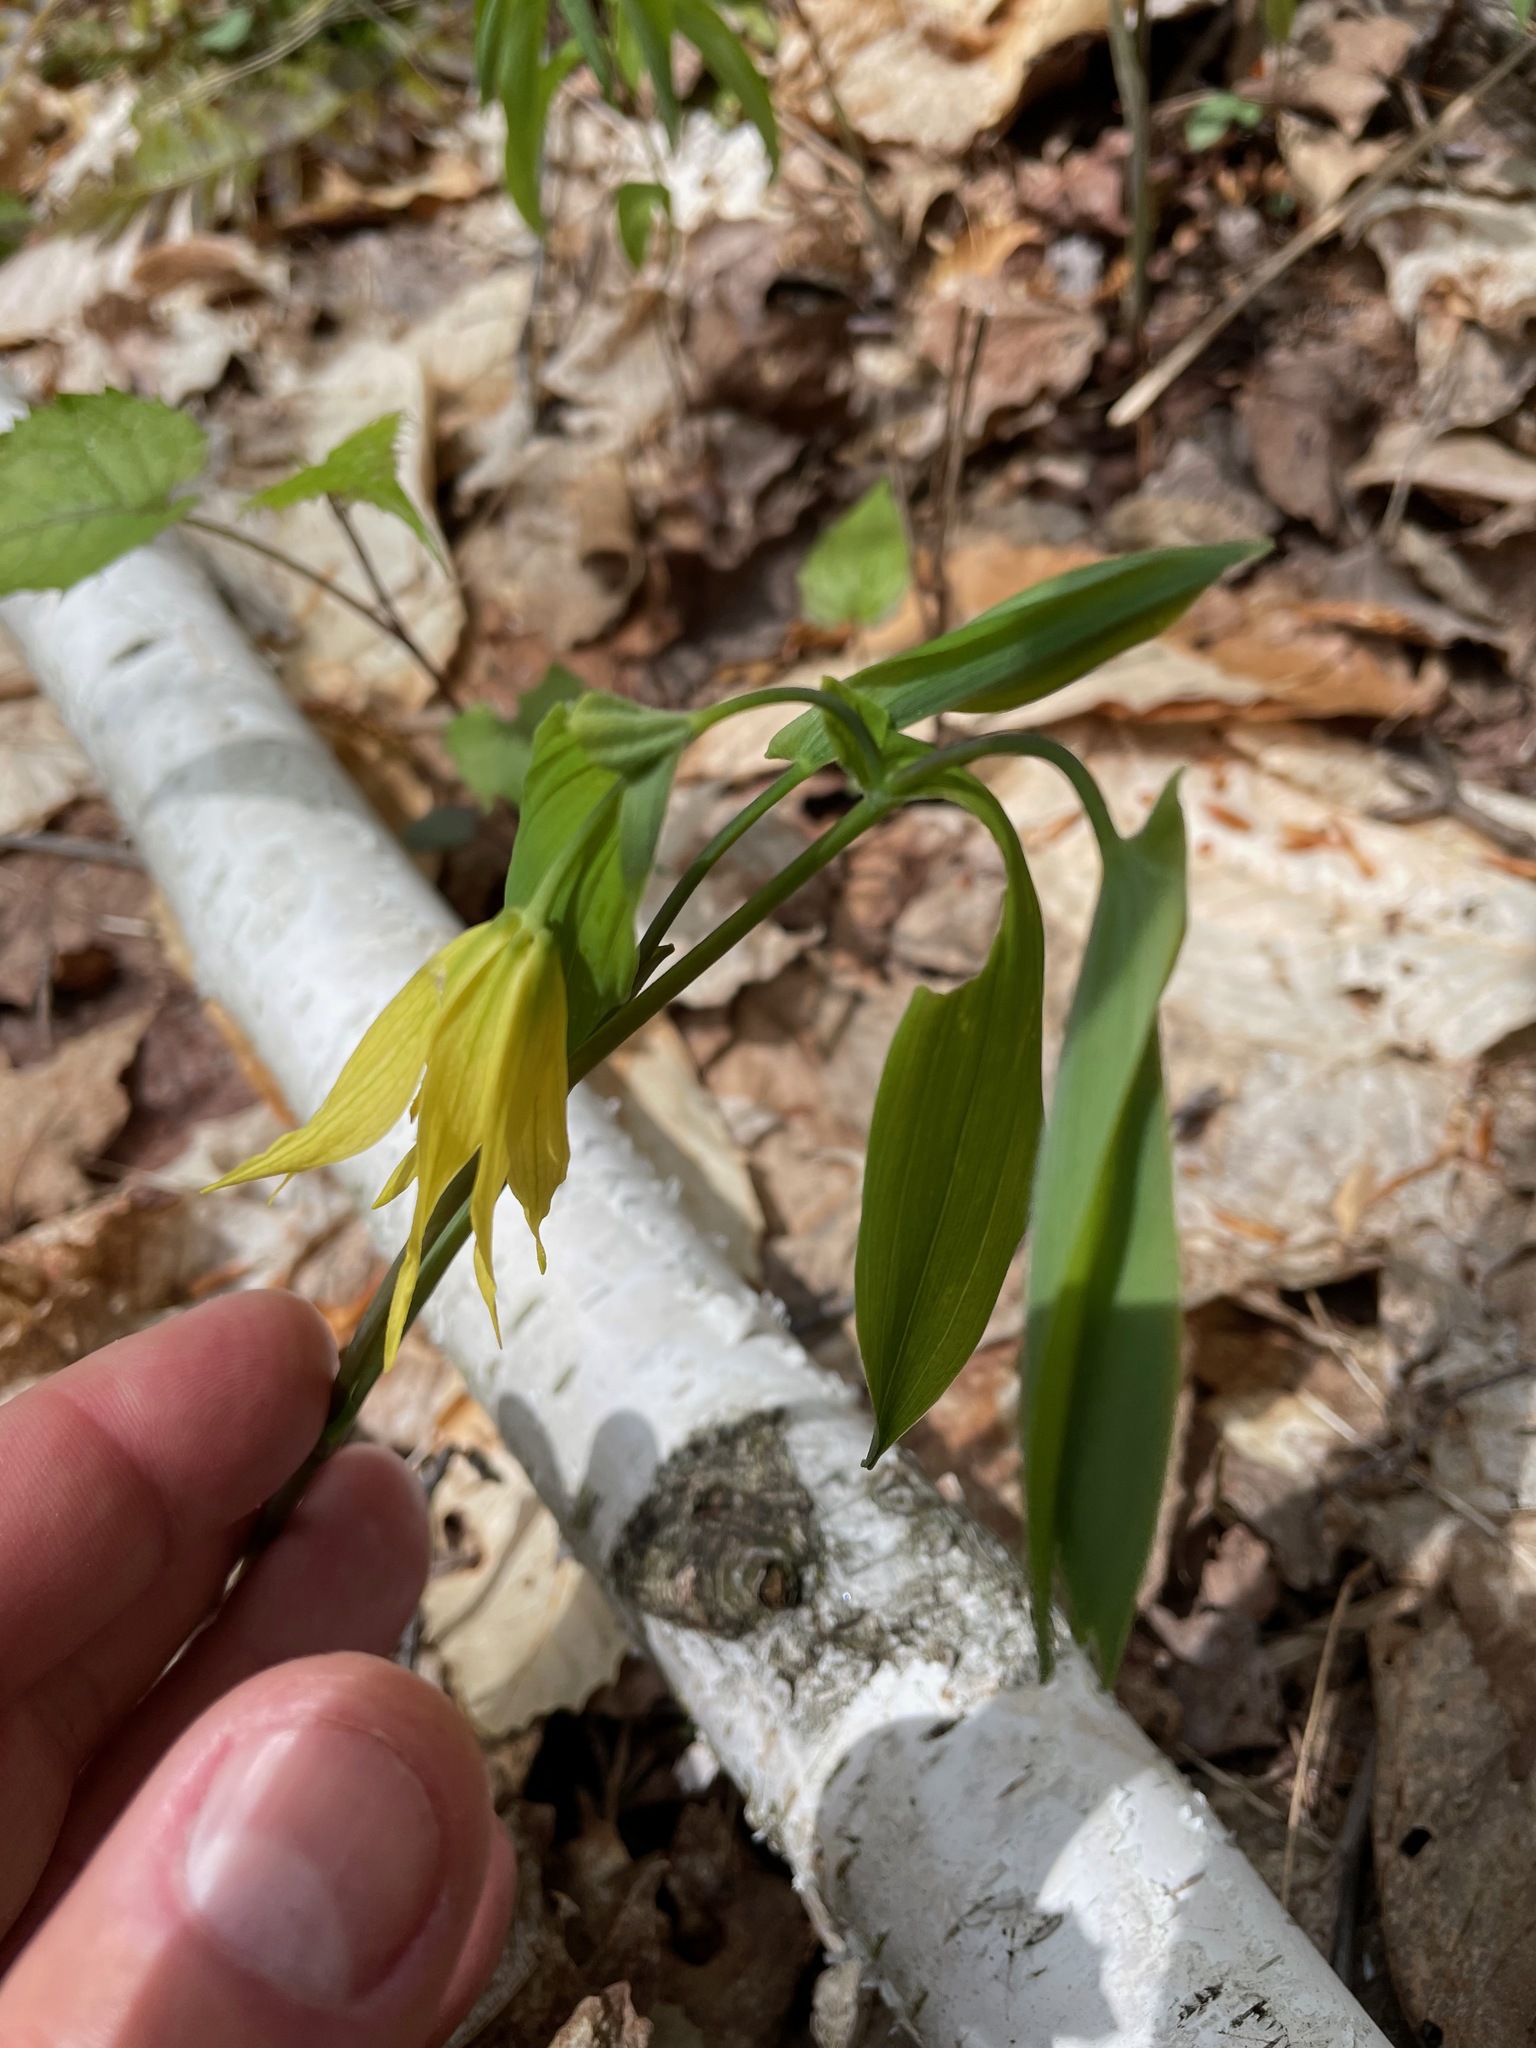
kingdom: Plantae
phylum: Tracheophyta
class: Liliopsida
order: Liliales
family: Colchicaceae
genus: Uvularia
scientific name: Uvularia grandiflora
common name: Bellwort
